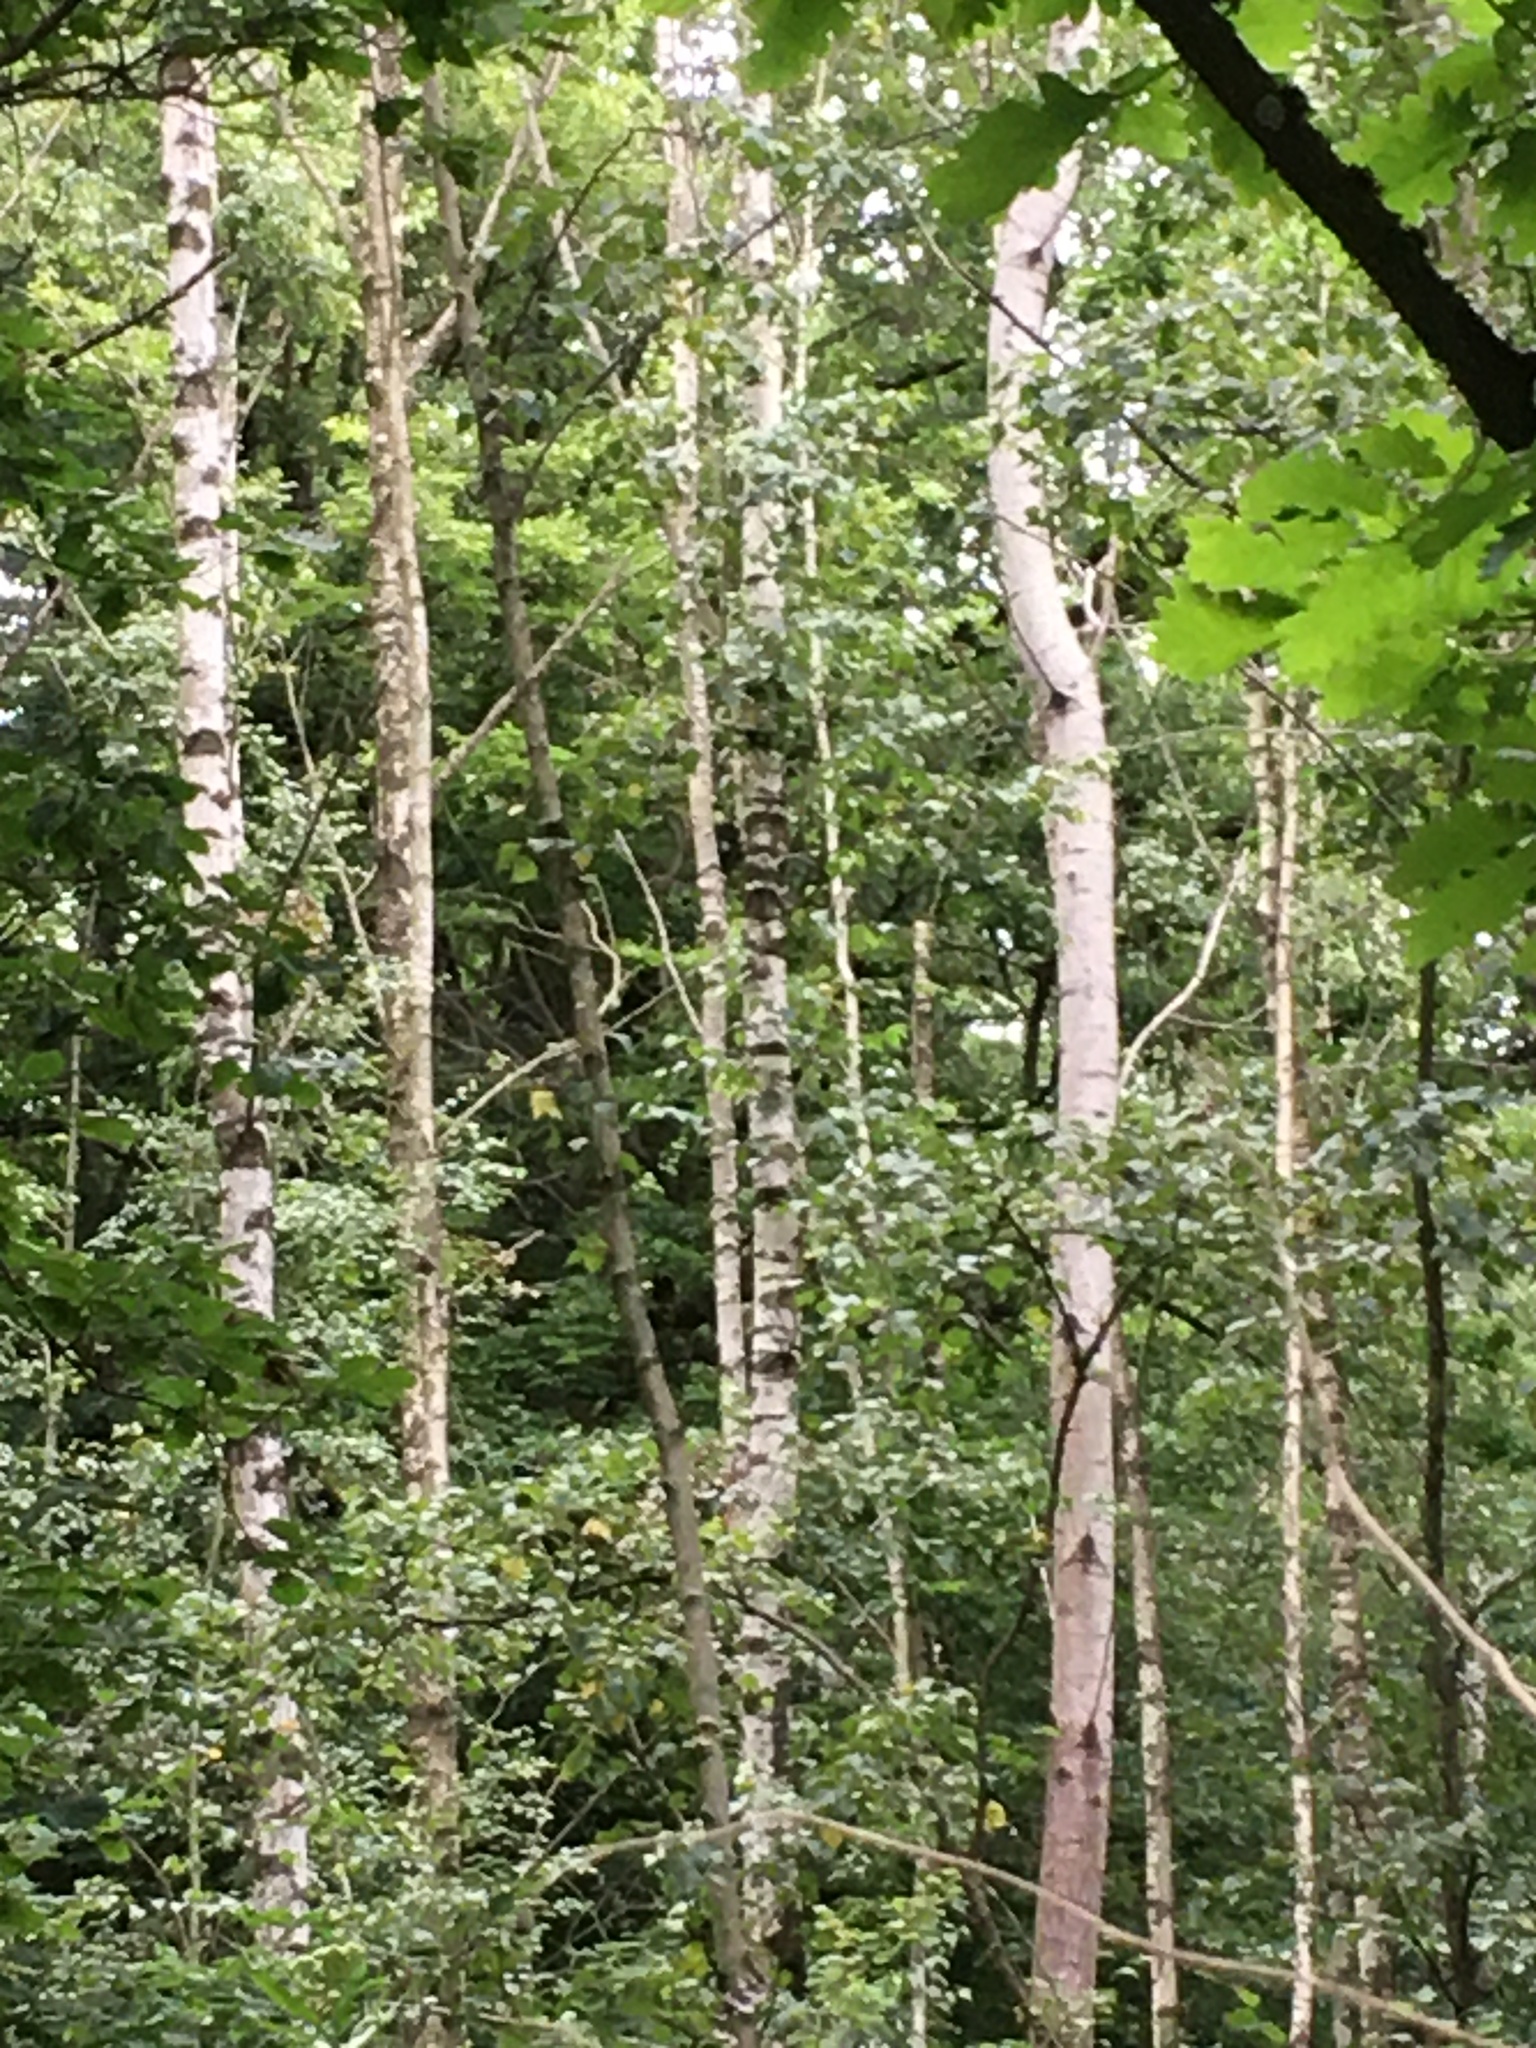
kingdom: Plantae
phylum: Tracheophyta
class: Magnoliopsida
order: Fagales
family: Betulaceae
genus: Betula
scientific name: Betula pendula
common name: Silver birch
